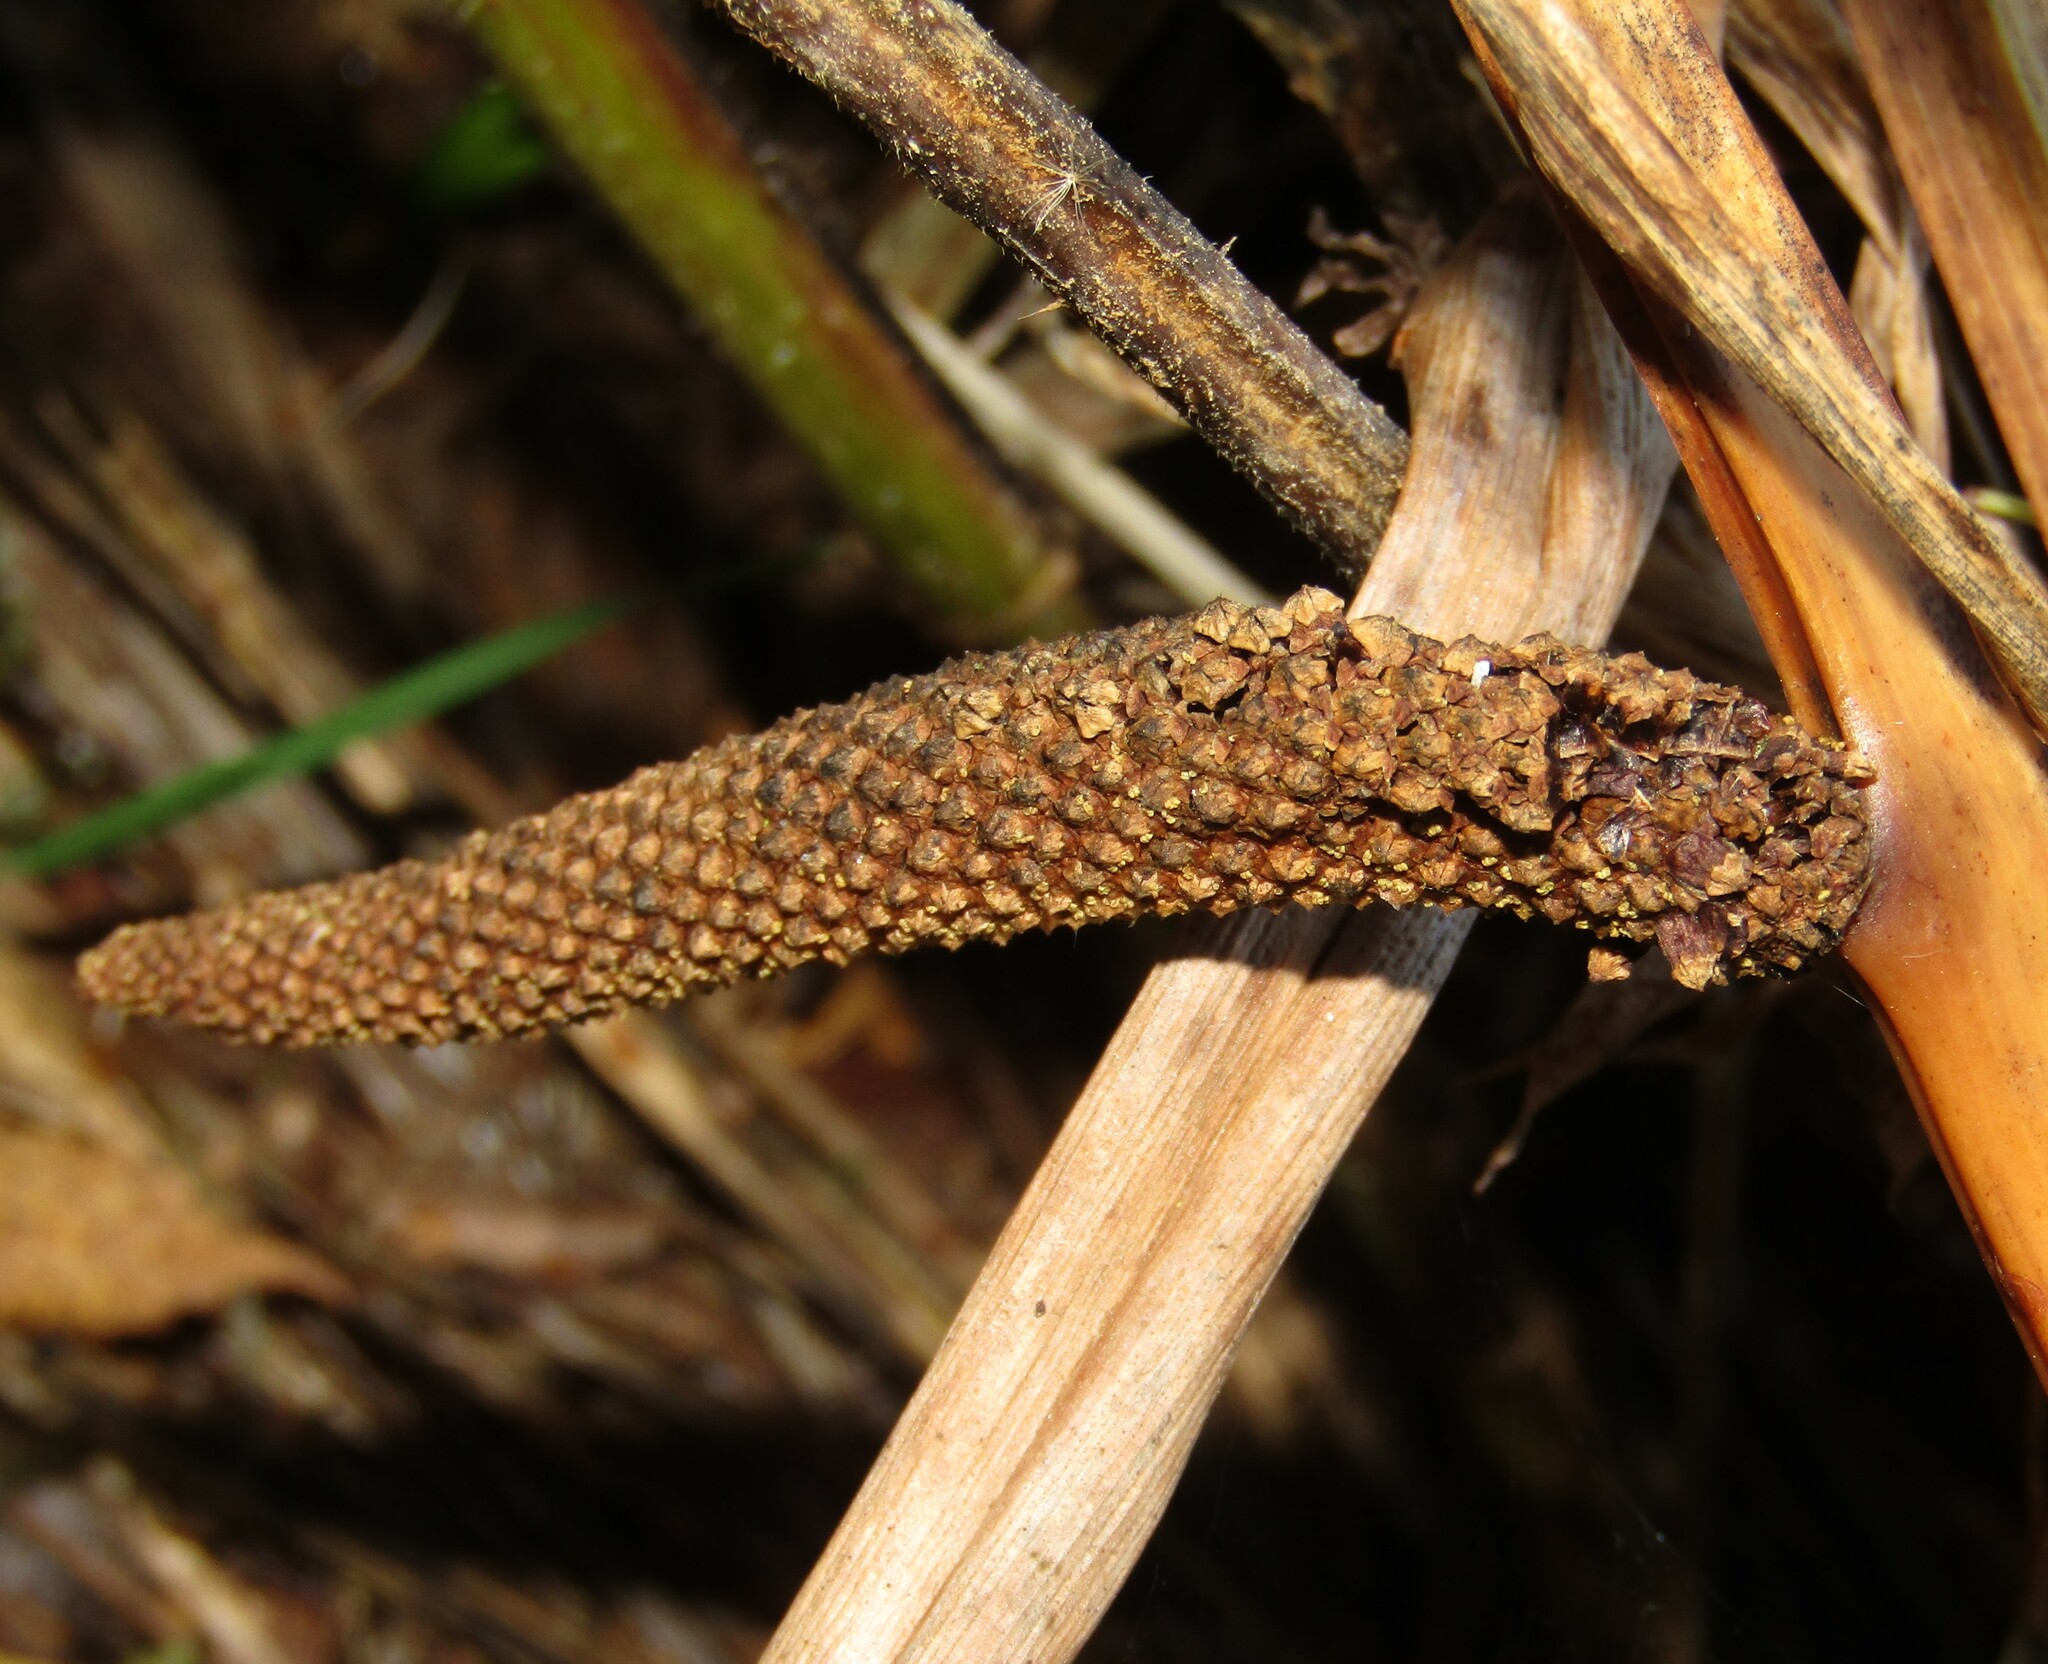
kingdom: Plantae
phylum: Tracheophyta
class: Liliopsida
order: Acorales
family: Acoraceae
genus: Acorus
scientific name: Acorus calamus
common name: Sweet-flag
